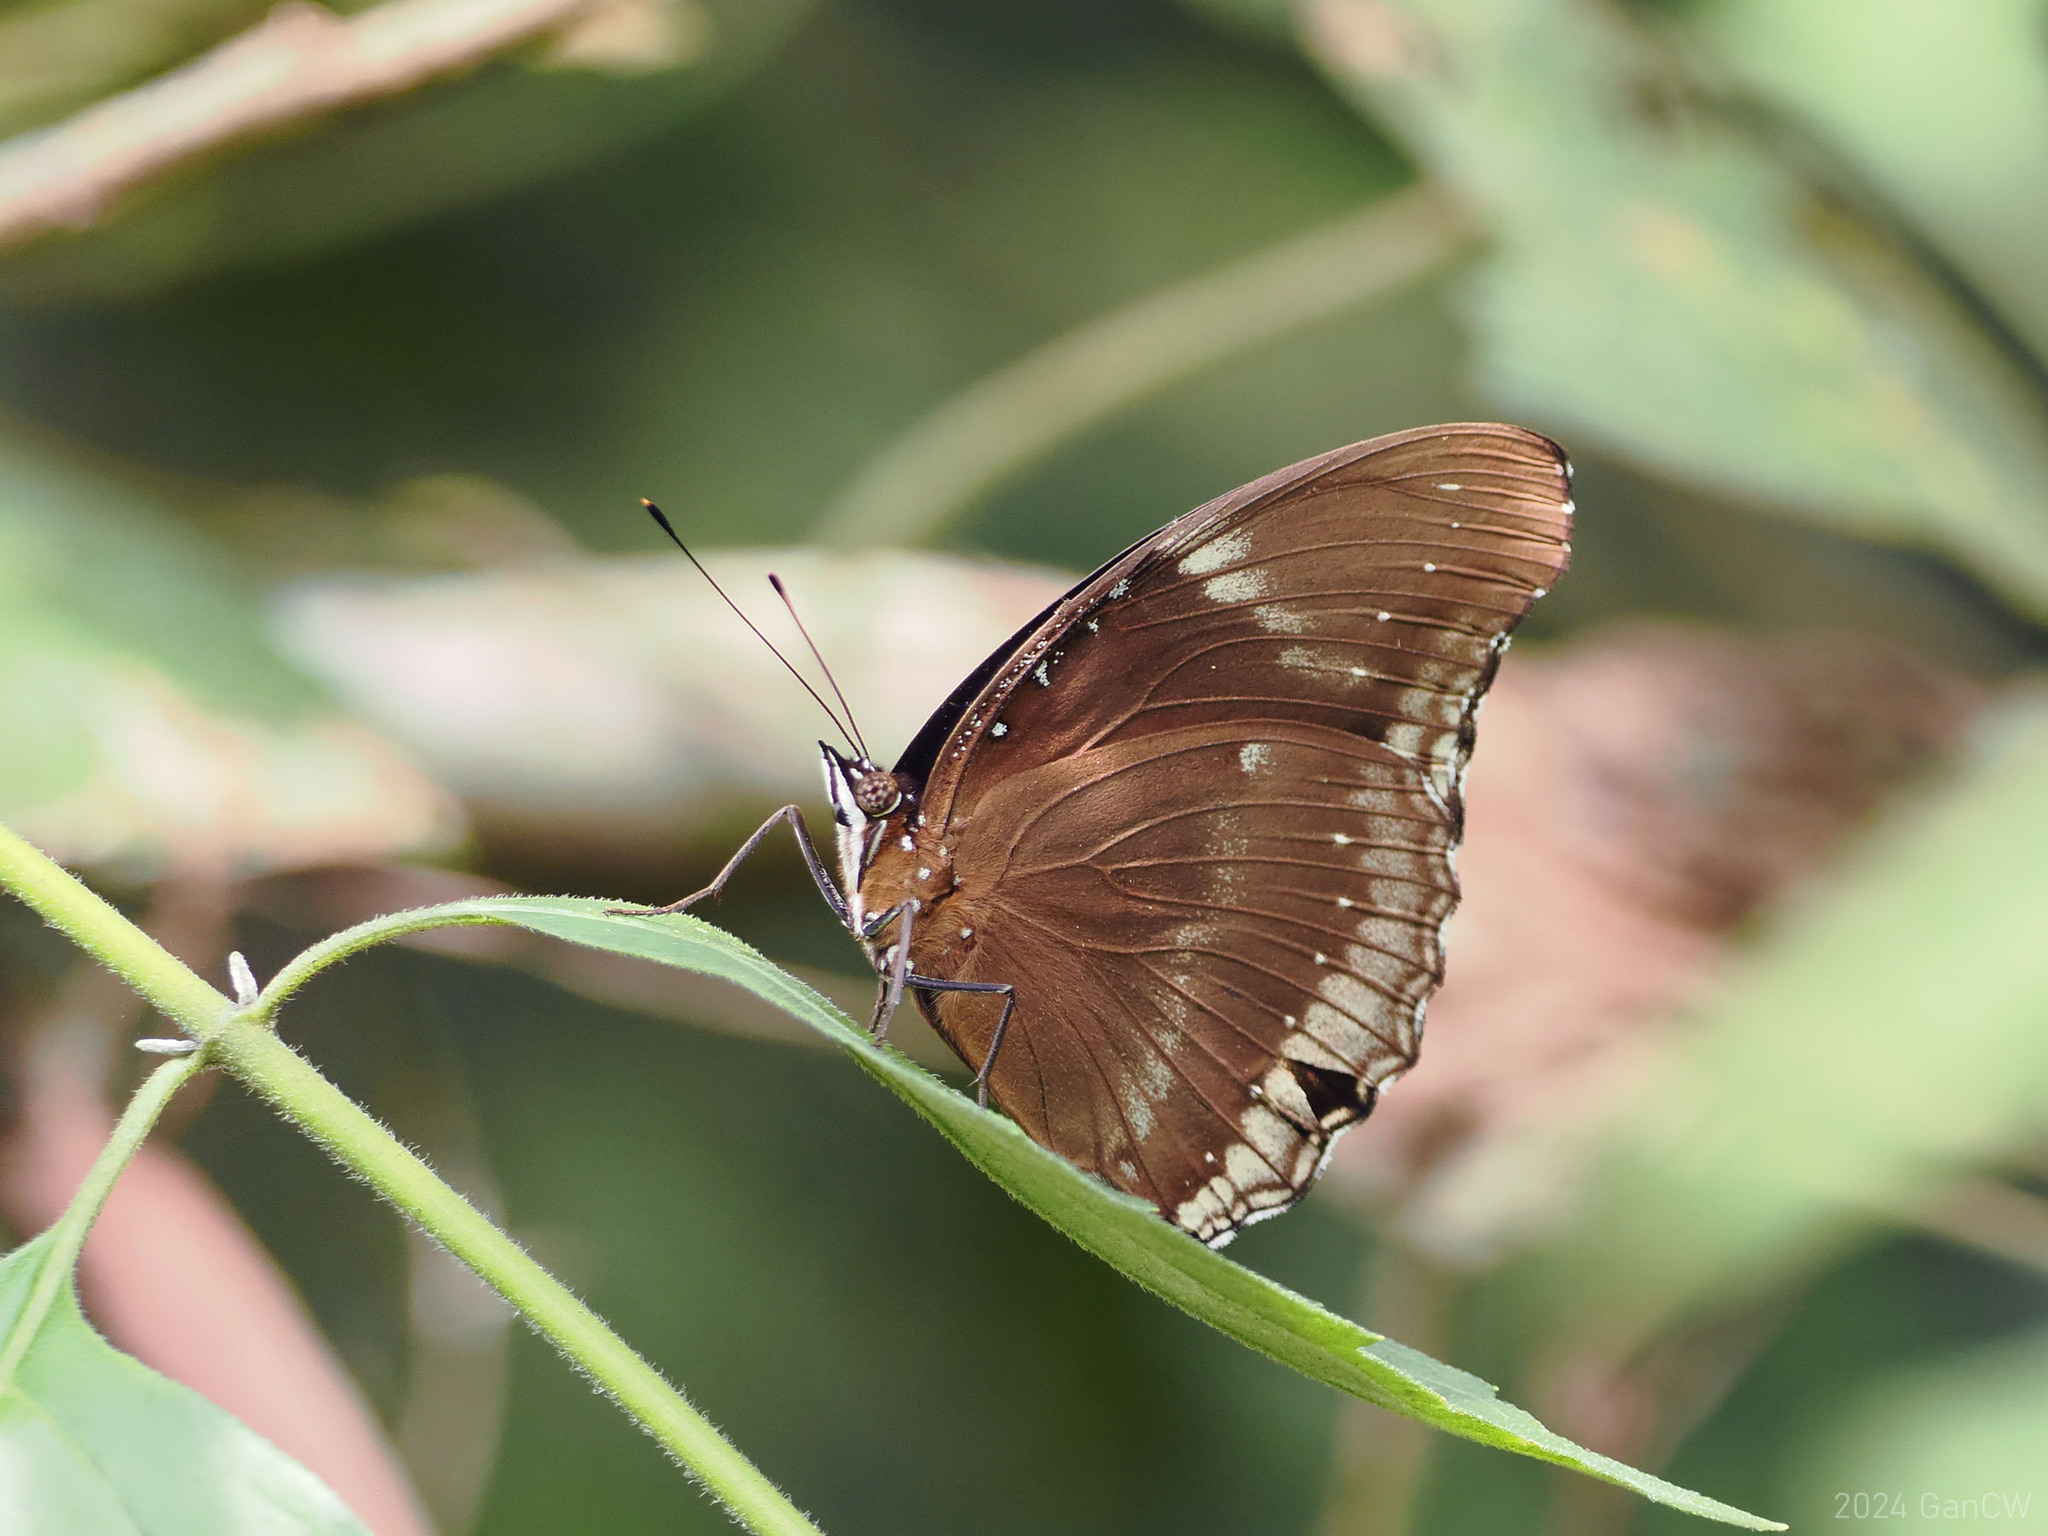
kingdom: Animalia
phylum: Arthropoda
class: Insecta
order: Lepidoptera
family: Nymphalidae
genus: Hypolimnas
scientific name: Hypolimnas bolina
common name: Great eggfly
